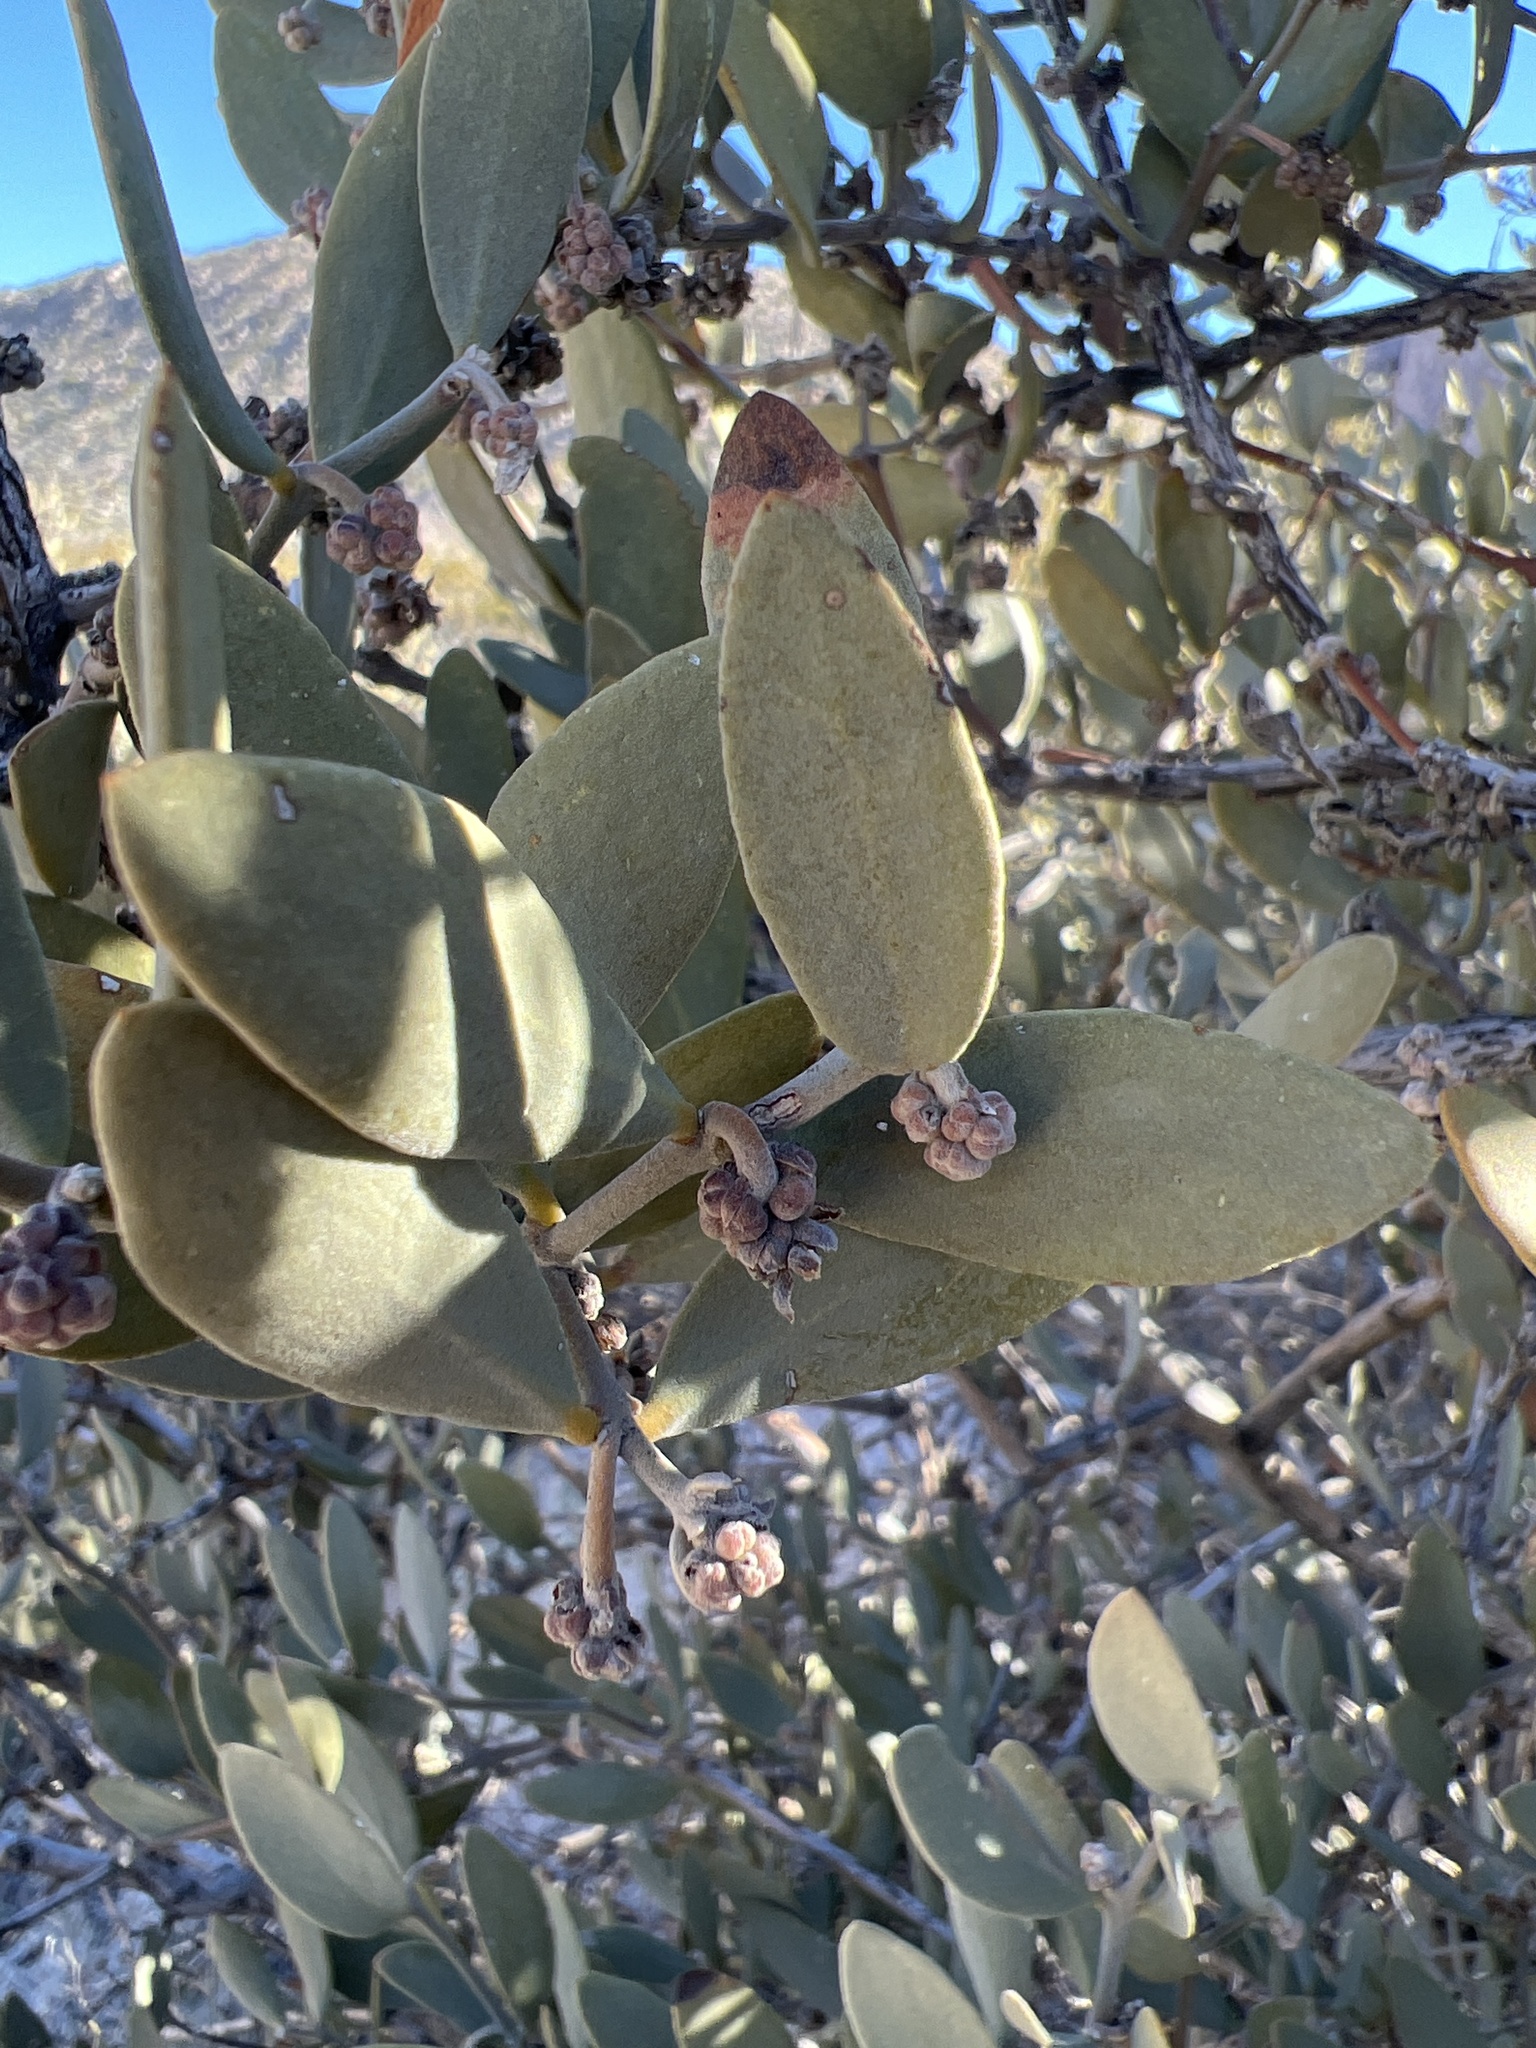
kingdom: Plantae
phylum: Tracheophyta
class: Magnoliopsida
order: Caryophyllales
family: Simmondsiaceae
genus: Simmondsia
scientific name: Simmondsia chinensis
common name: Jojoba
